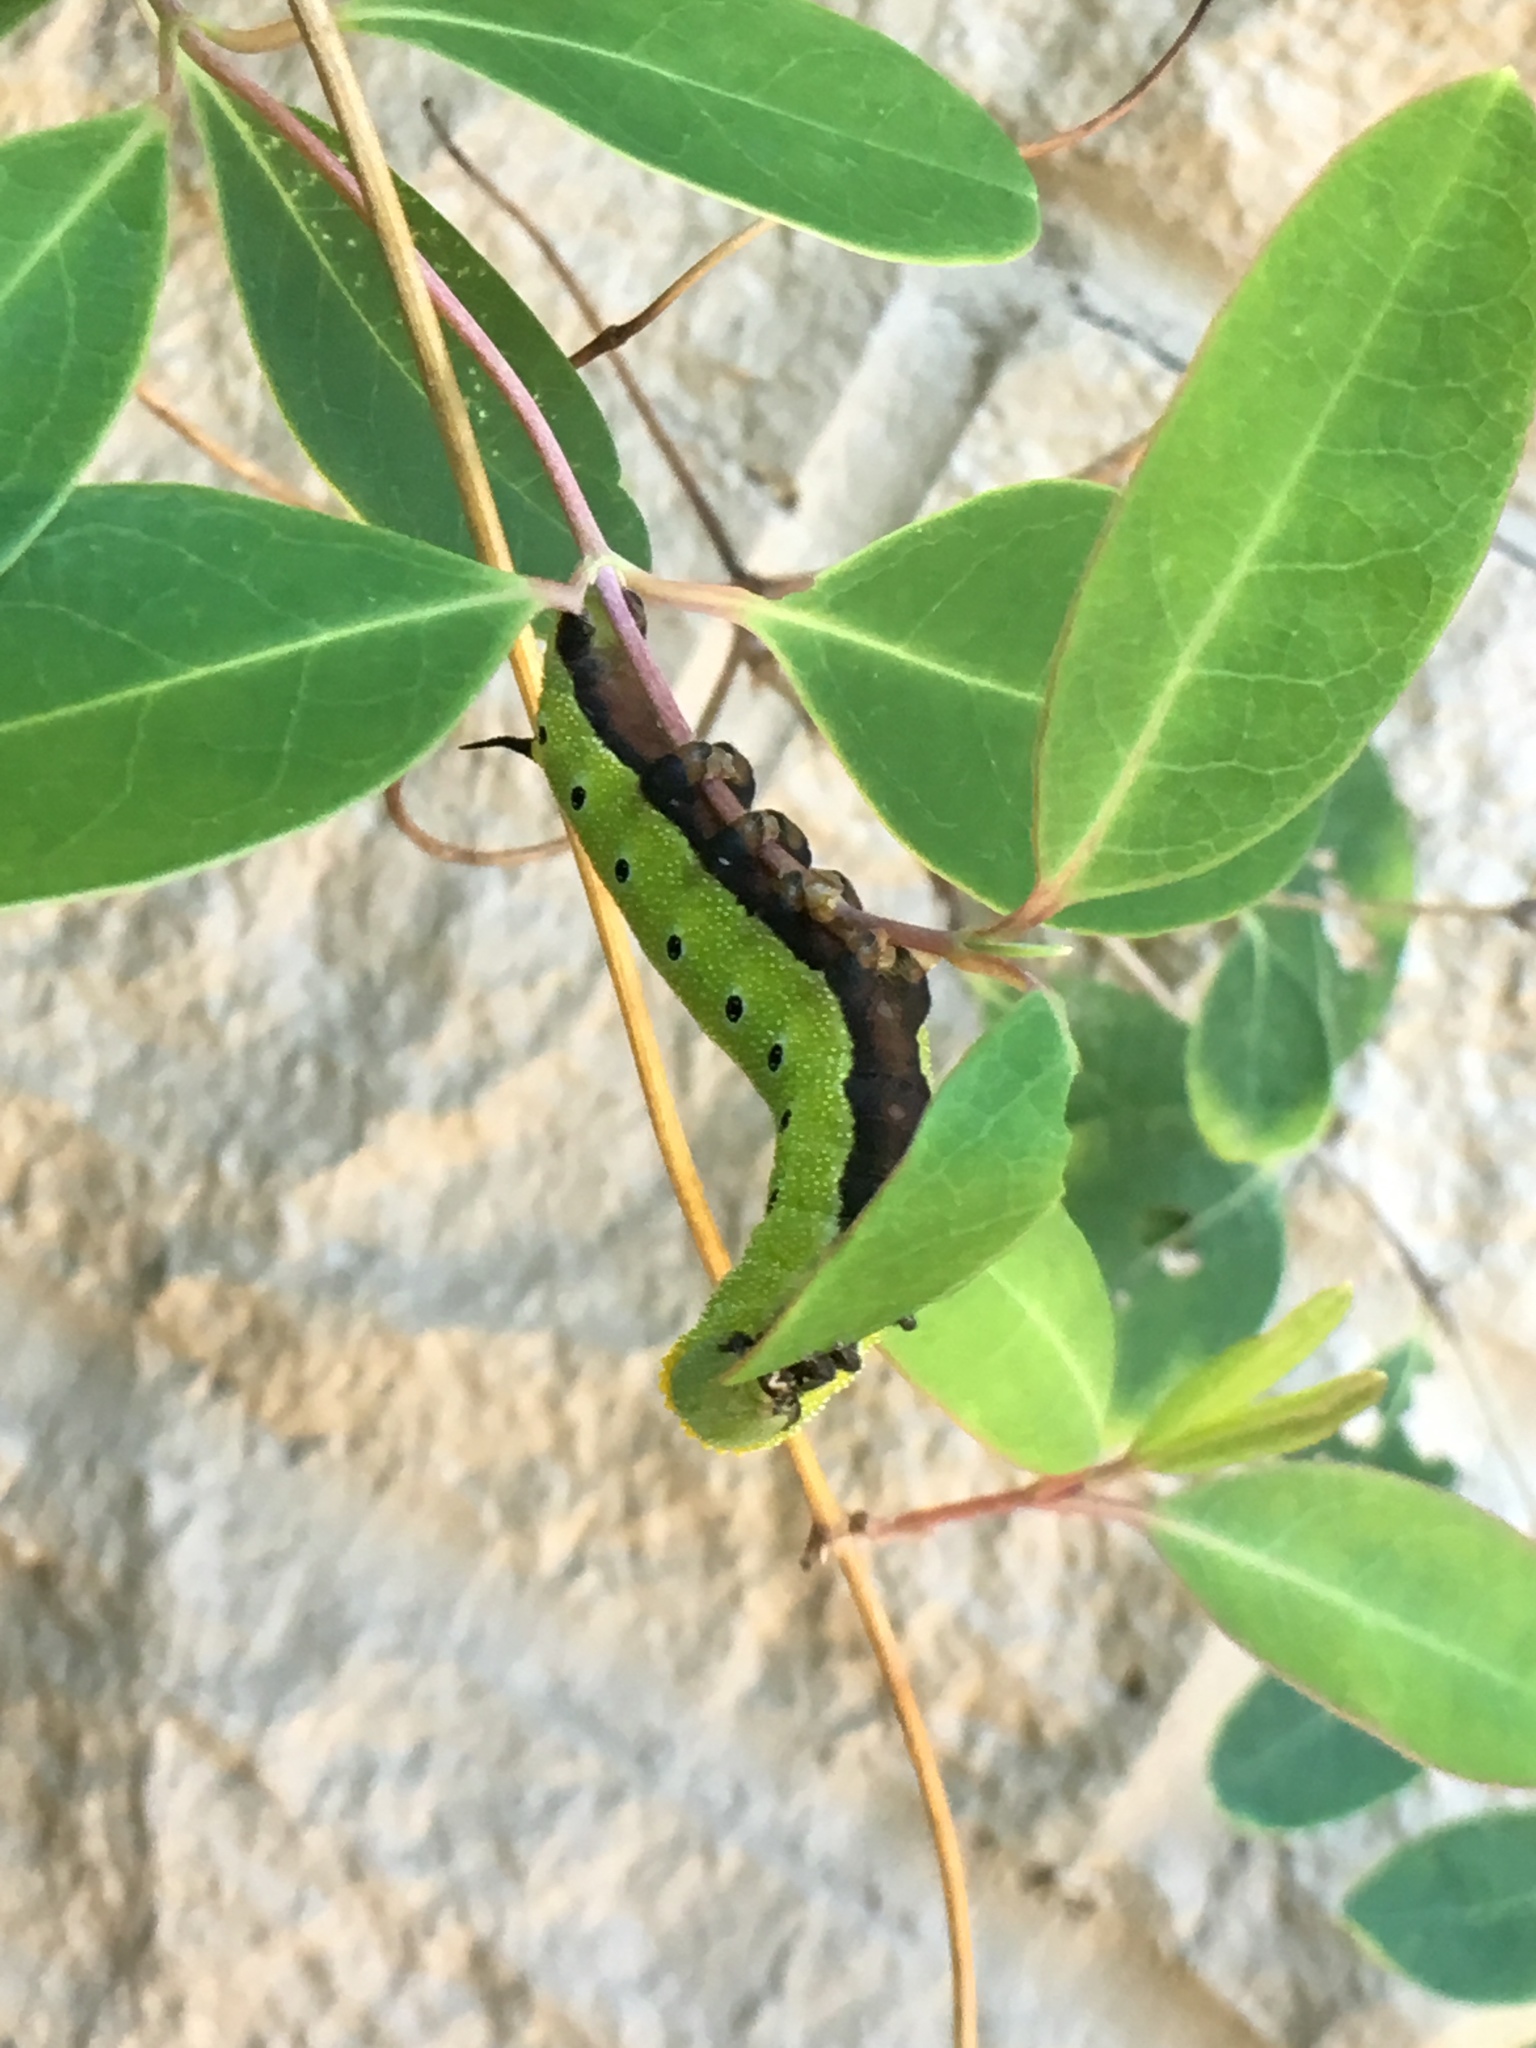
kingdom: Animalia
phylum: Arthropoda
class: Insecta
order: Lepidoptera
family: Sphingidae
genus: Hemaris
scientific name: Hemaris diffinis
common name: Bumblebee moth
